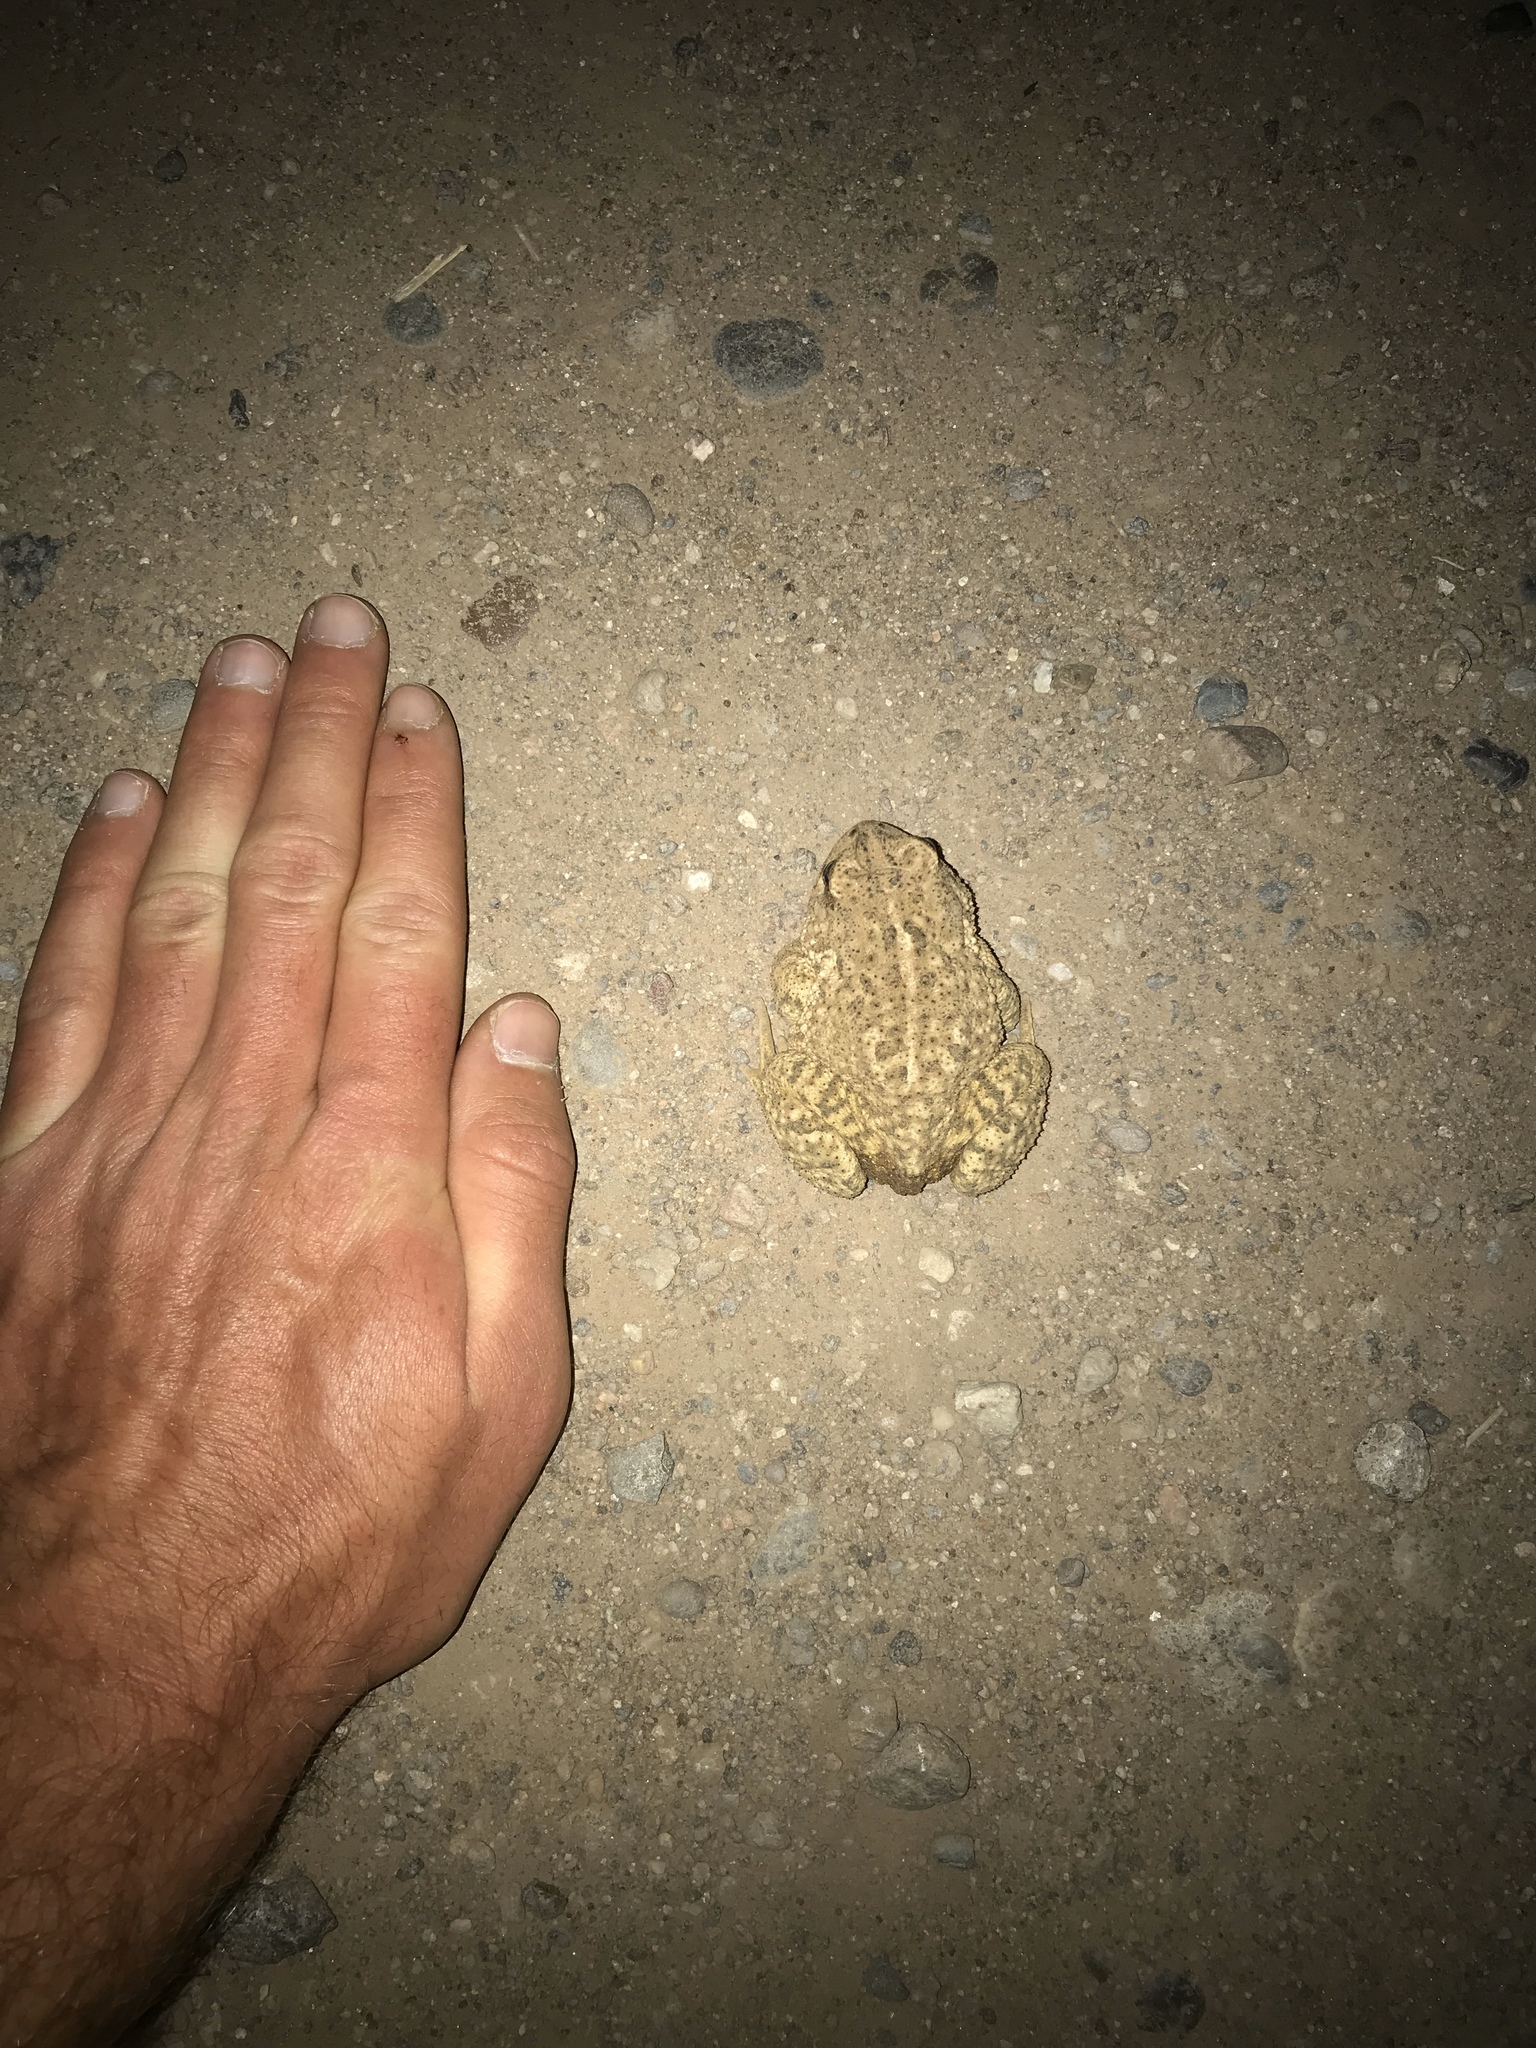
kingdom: Animalia
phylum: Chordata
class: Amphibia
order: Anura
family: Bufonidae
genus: Anaxyrus
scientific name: Anaxyrus woodhousii
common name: Woodhouse's toad
